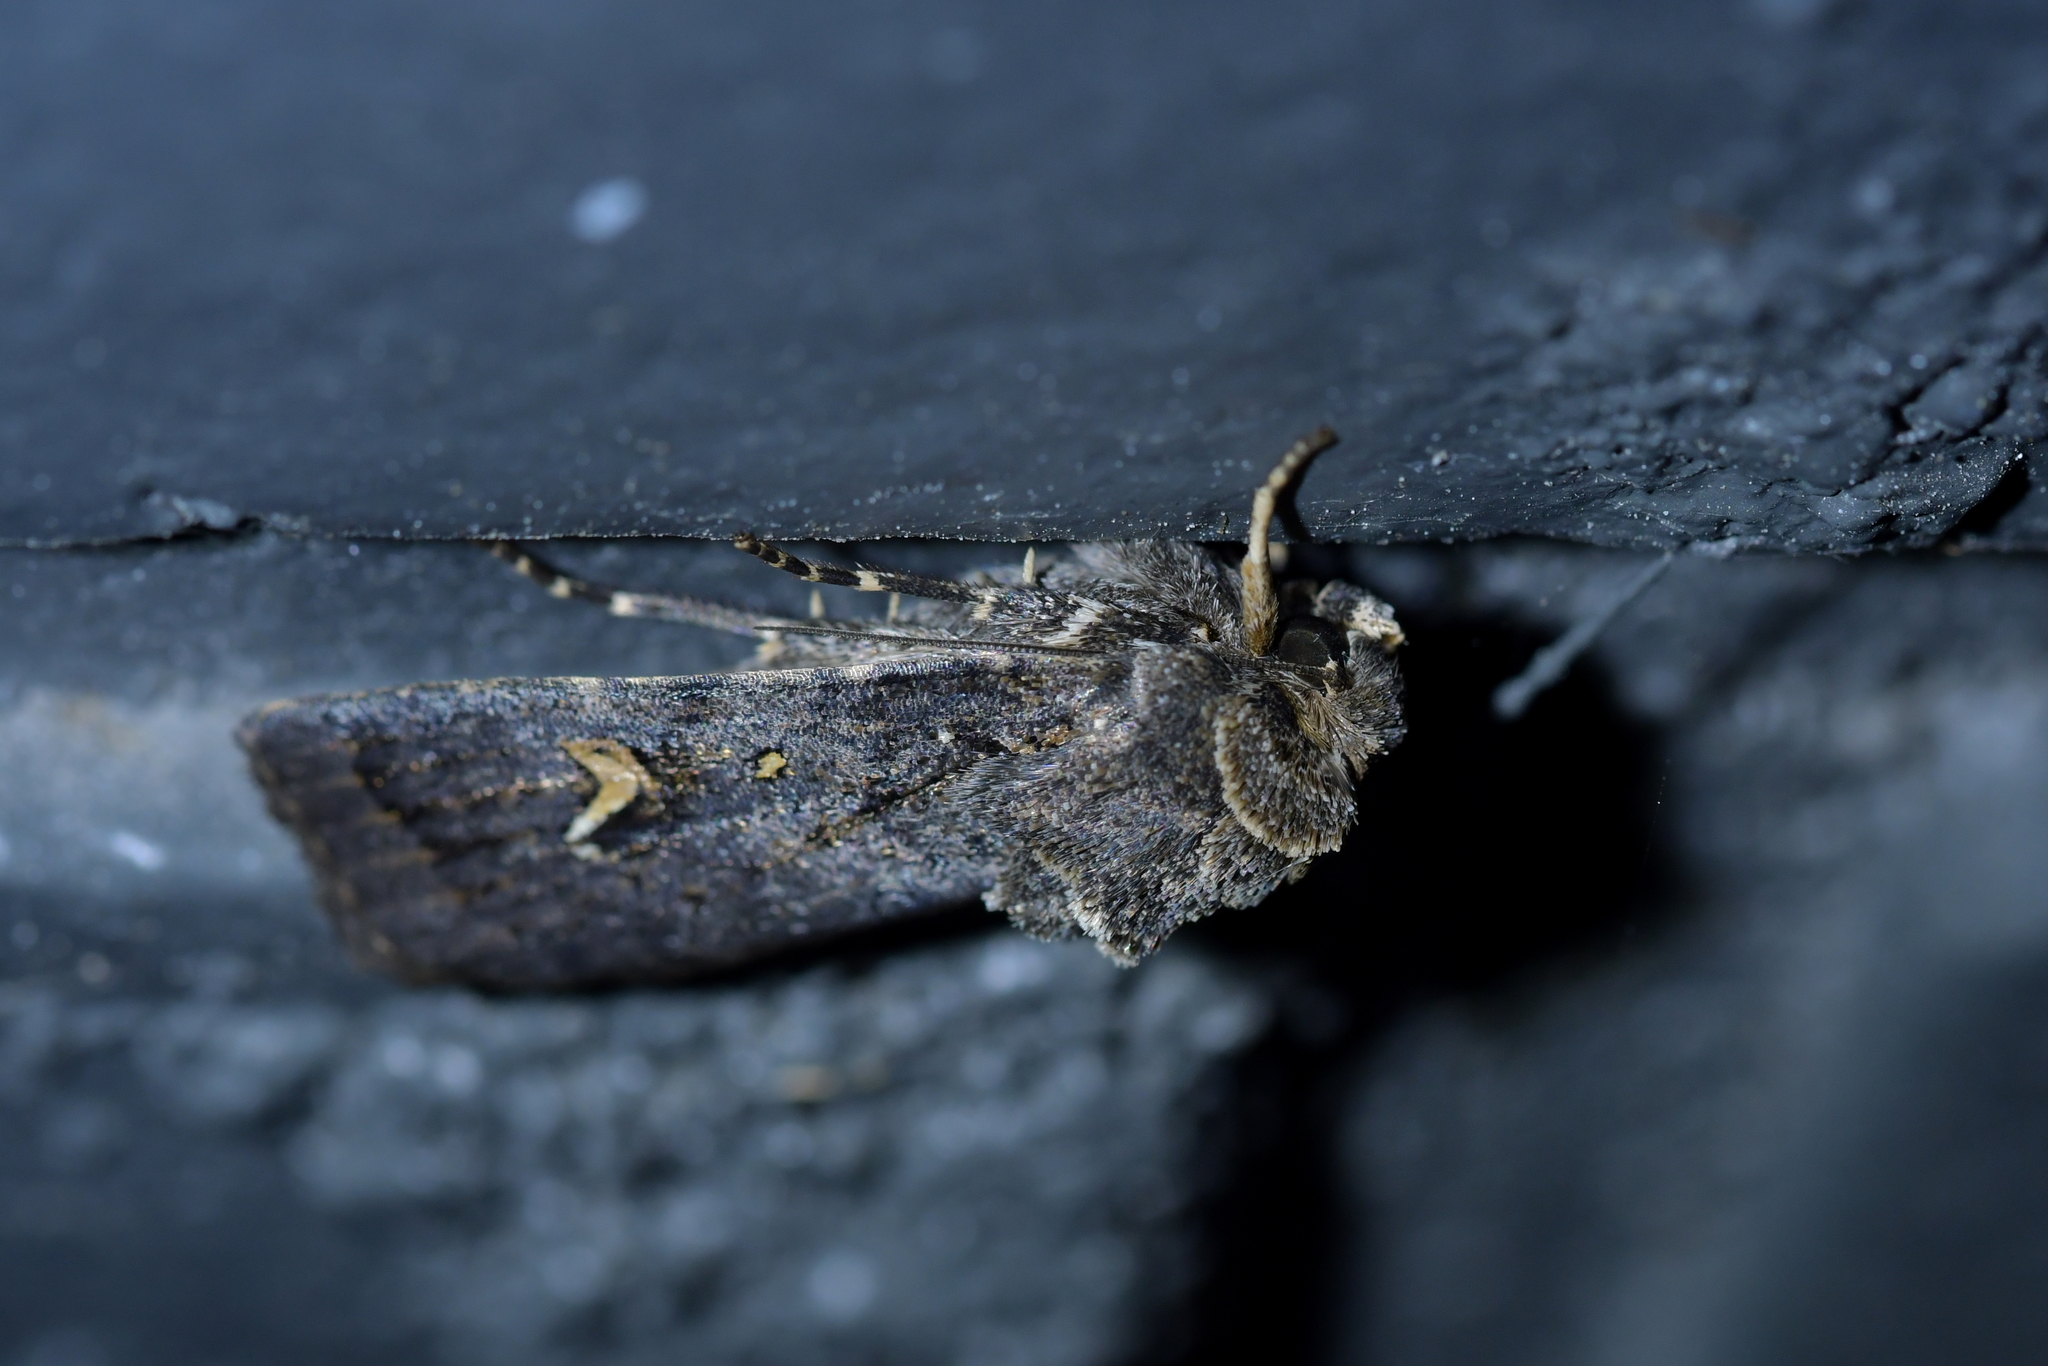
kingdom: Animalia
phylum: Arthropoda
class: Insecta
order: Lepidoptera
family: Noctuidae
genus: Proteuxoa
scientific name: Proteuxoa comma
